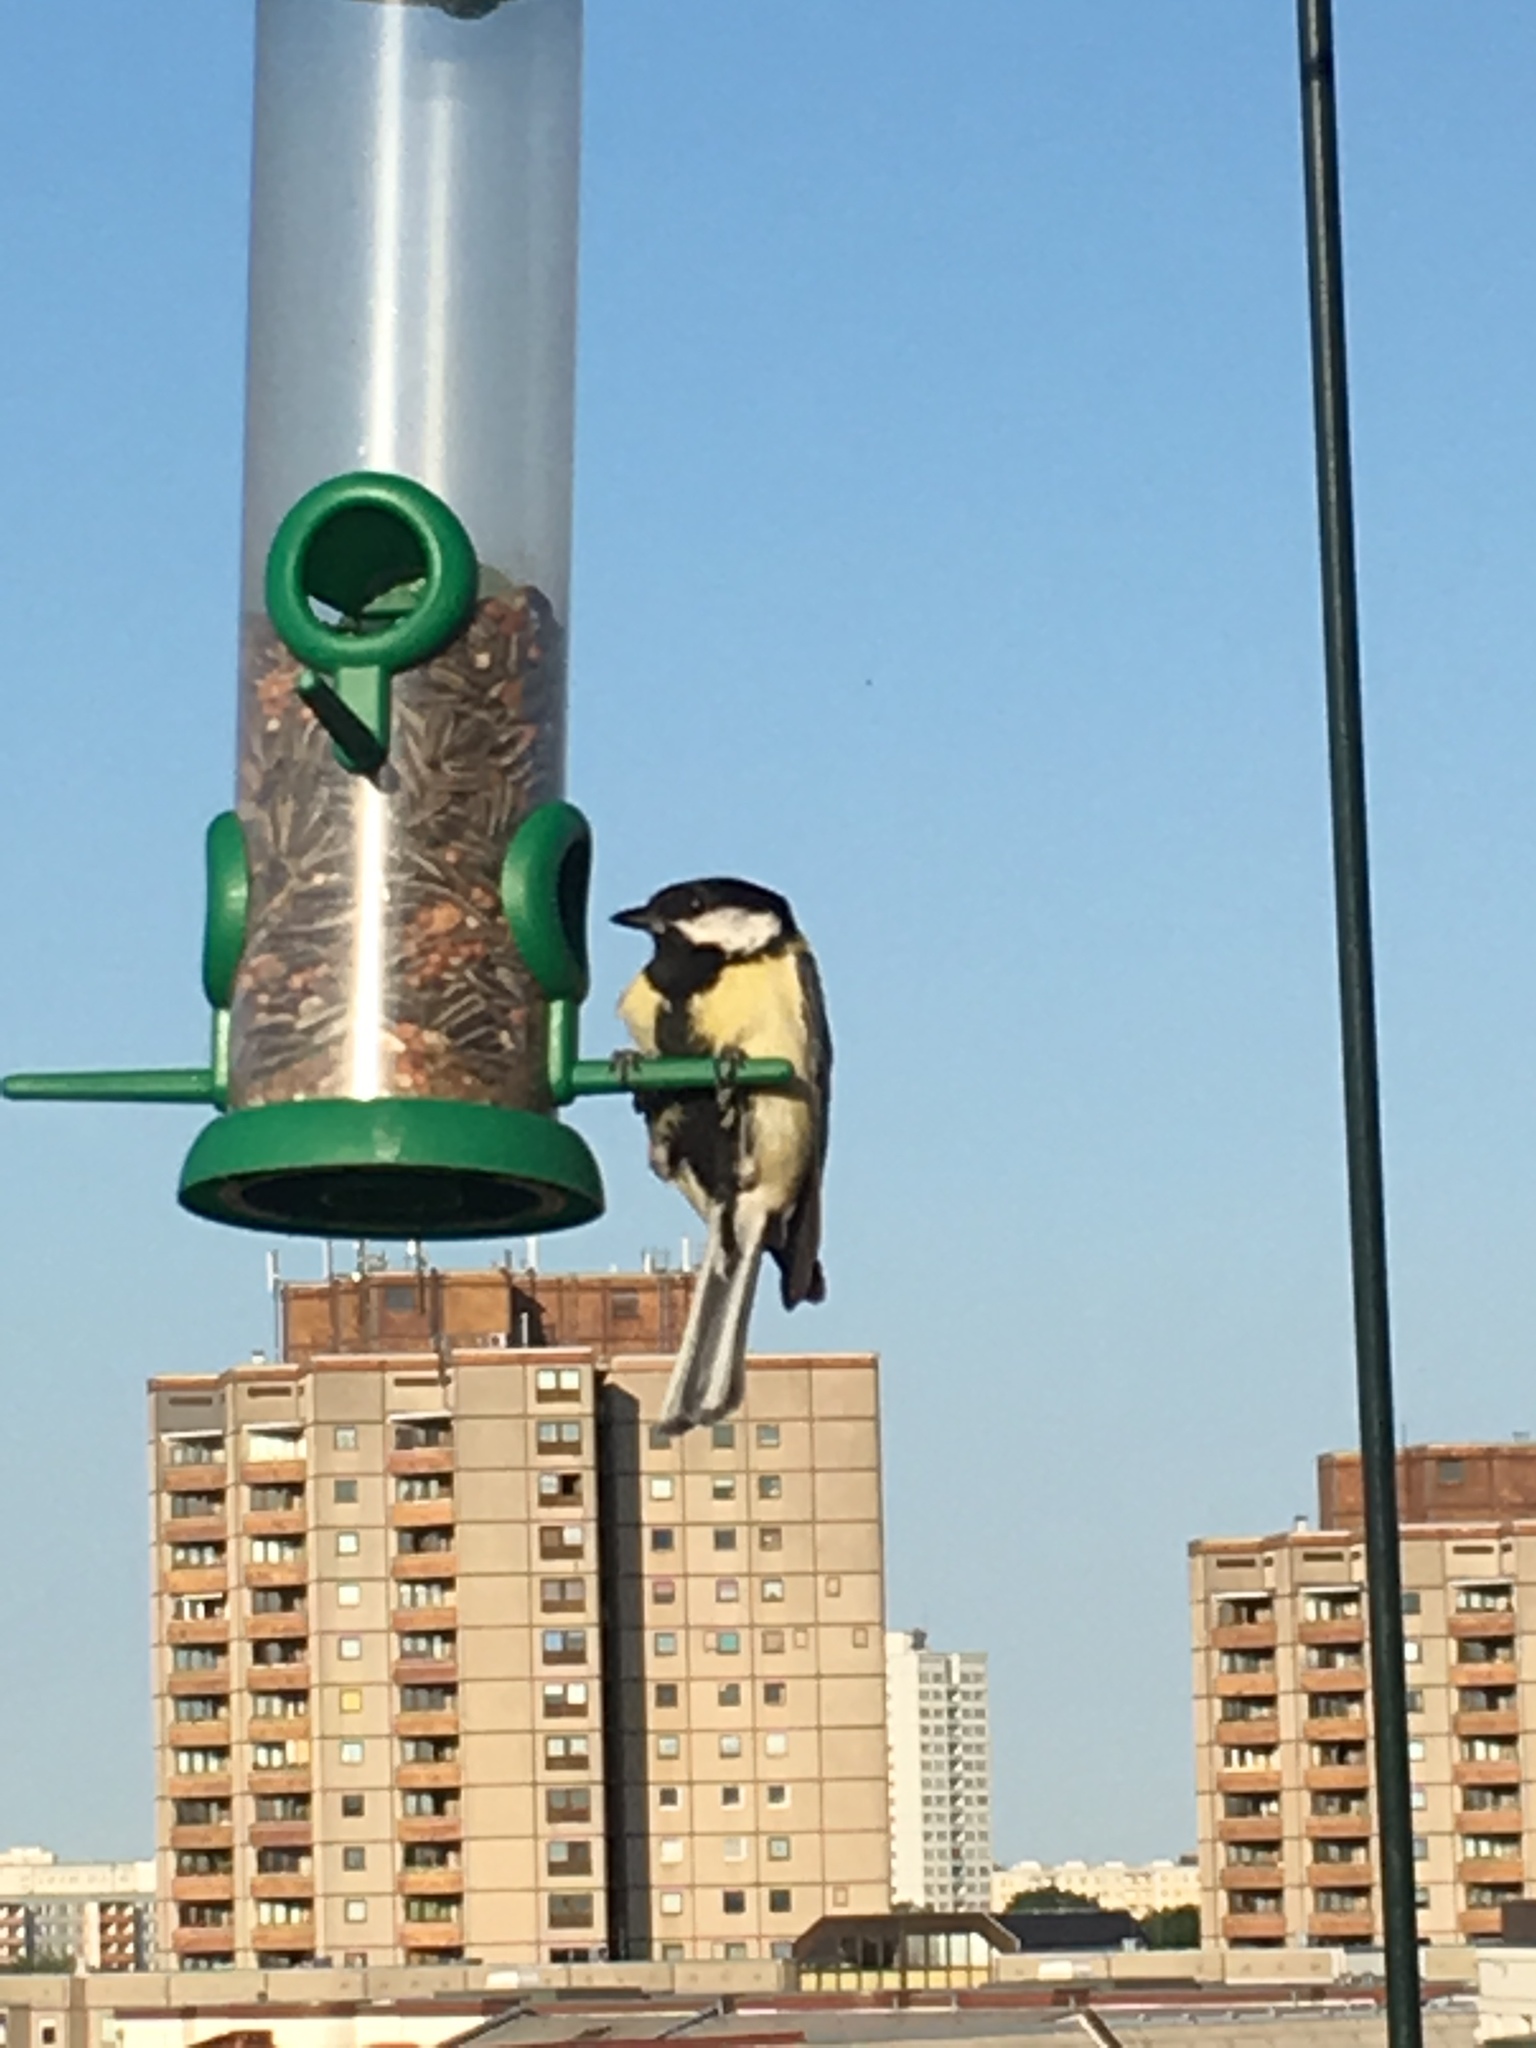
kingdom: Animalia
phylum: Chordata
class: Aves
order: Passeriformes
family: Paridae
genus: Parus
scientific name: Parus major
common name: Great tit
